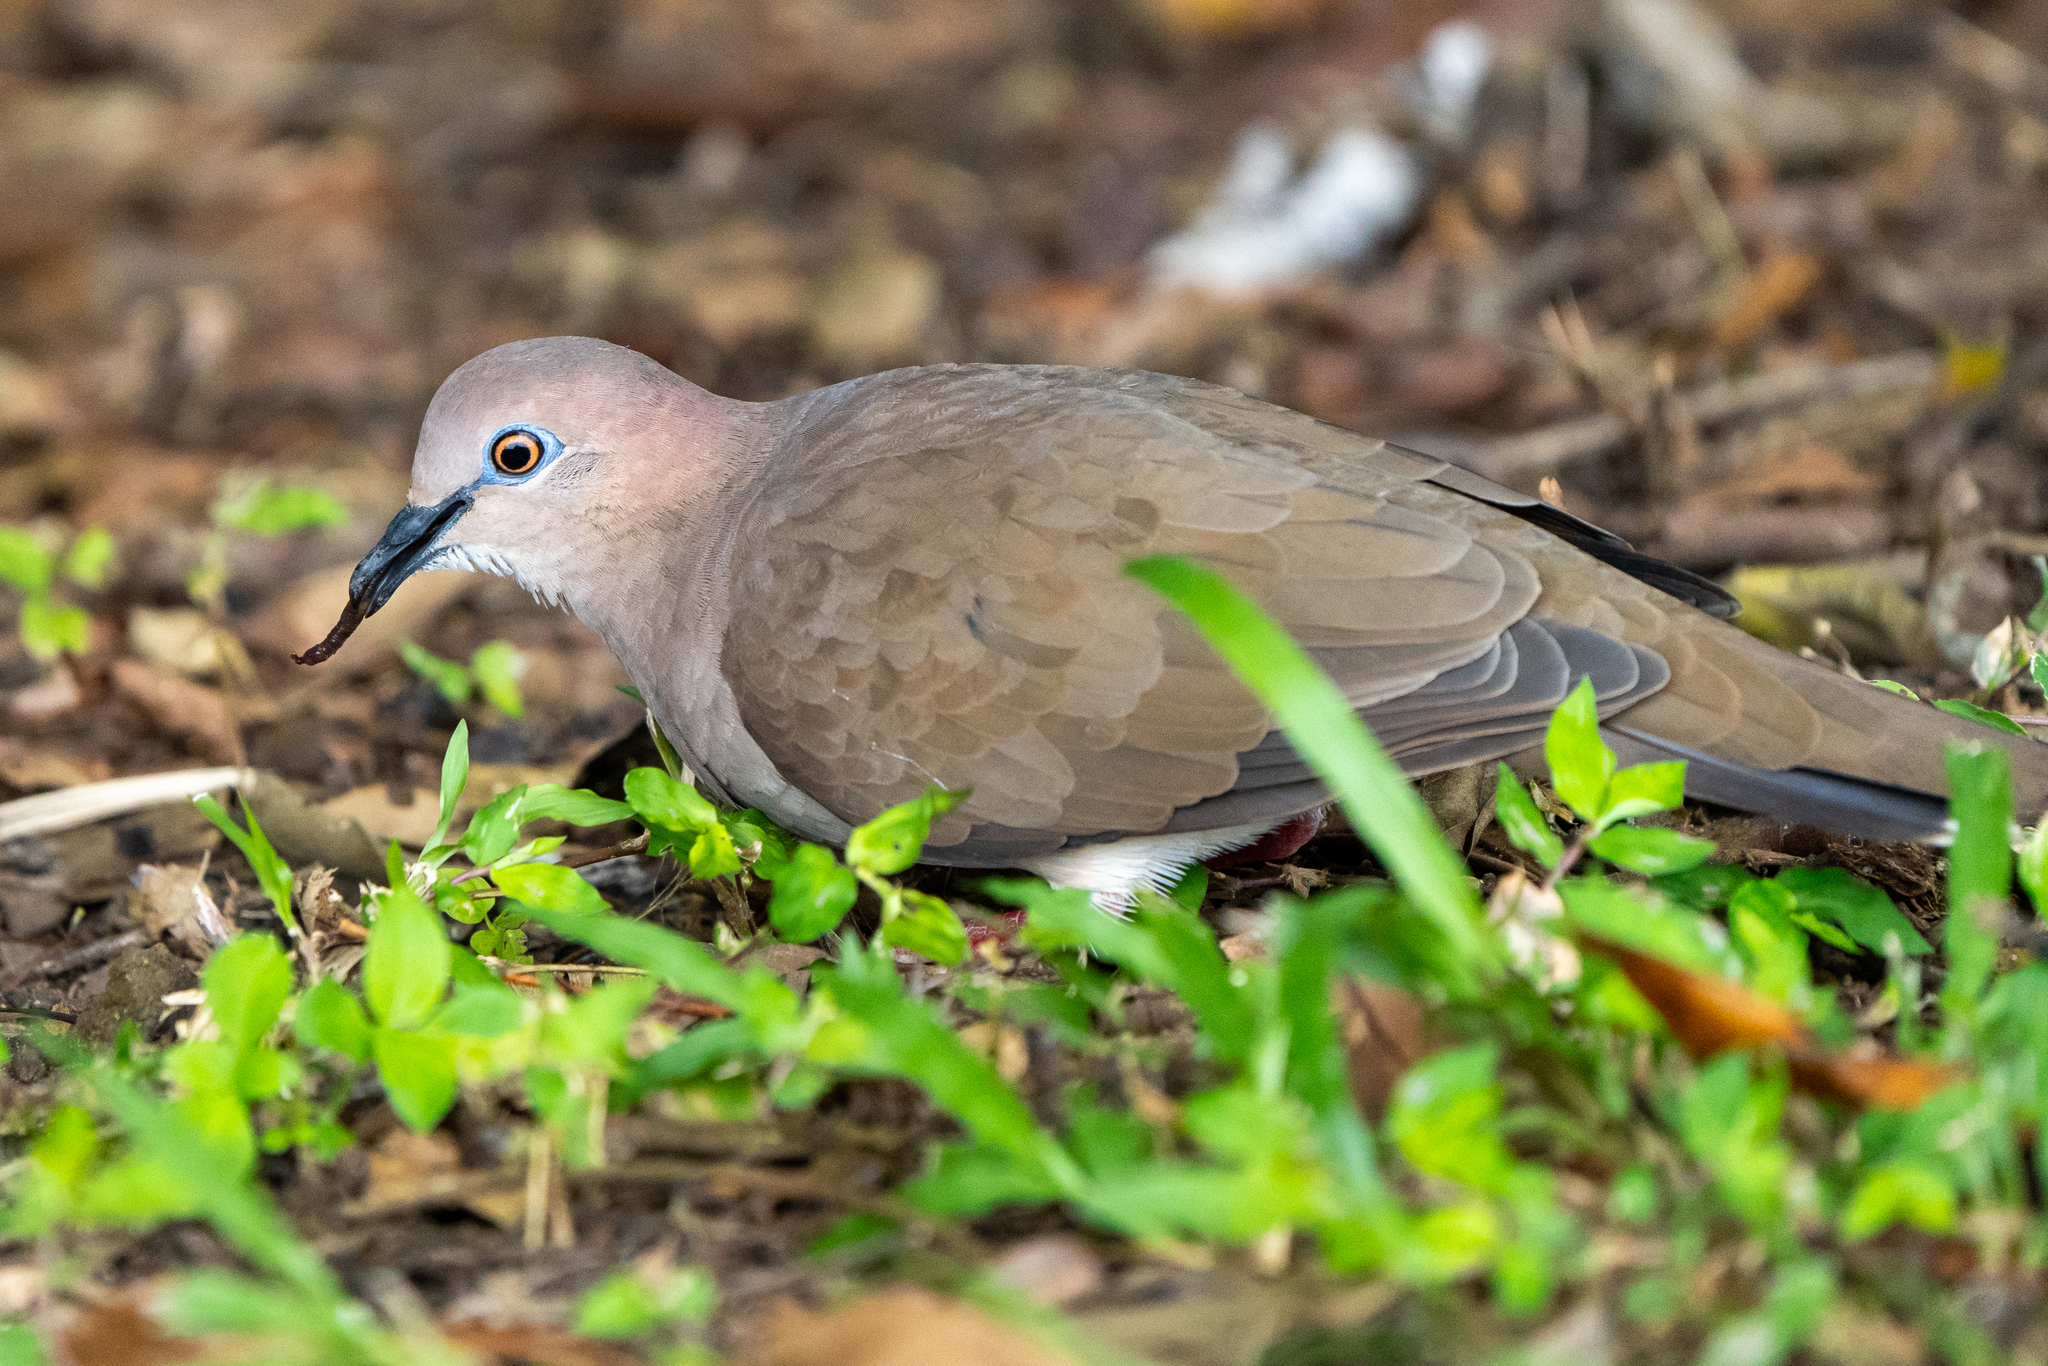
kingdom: Animalia
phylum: Chordata
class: Aves
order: Columbiformes
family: Columbidae
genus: Leptotila
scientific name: Leptotila verreauxi
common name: White-tipped dove
